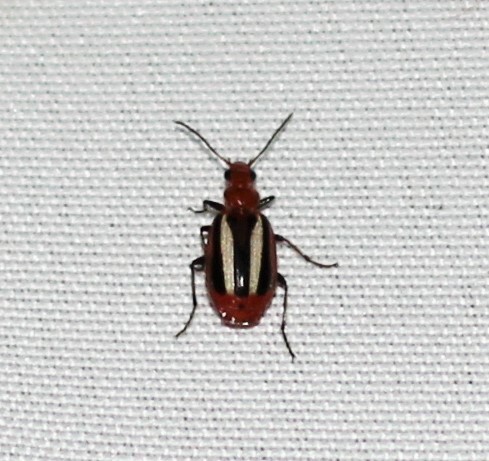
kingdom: Animalia
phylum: Arthropoda
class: Insecta
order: Coleoptera
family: Carabidae
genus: Lebia
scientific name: Lebia vittata
